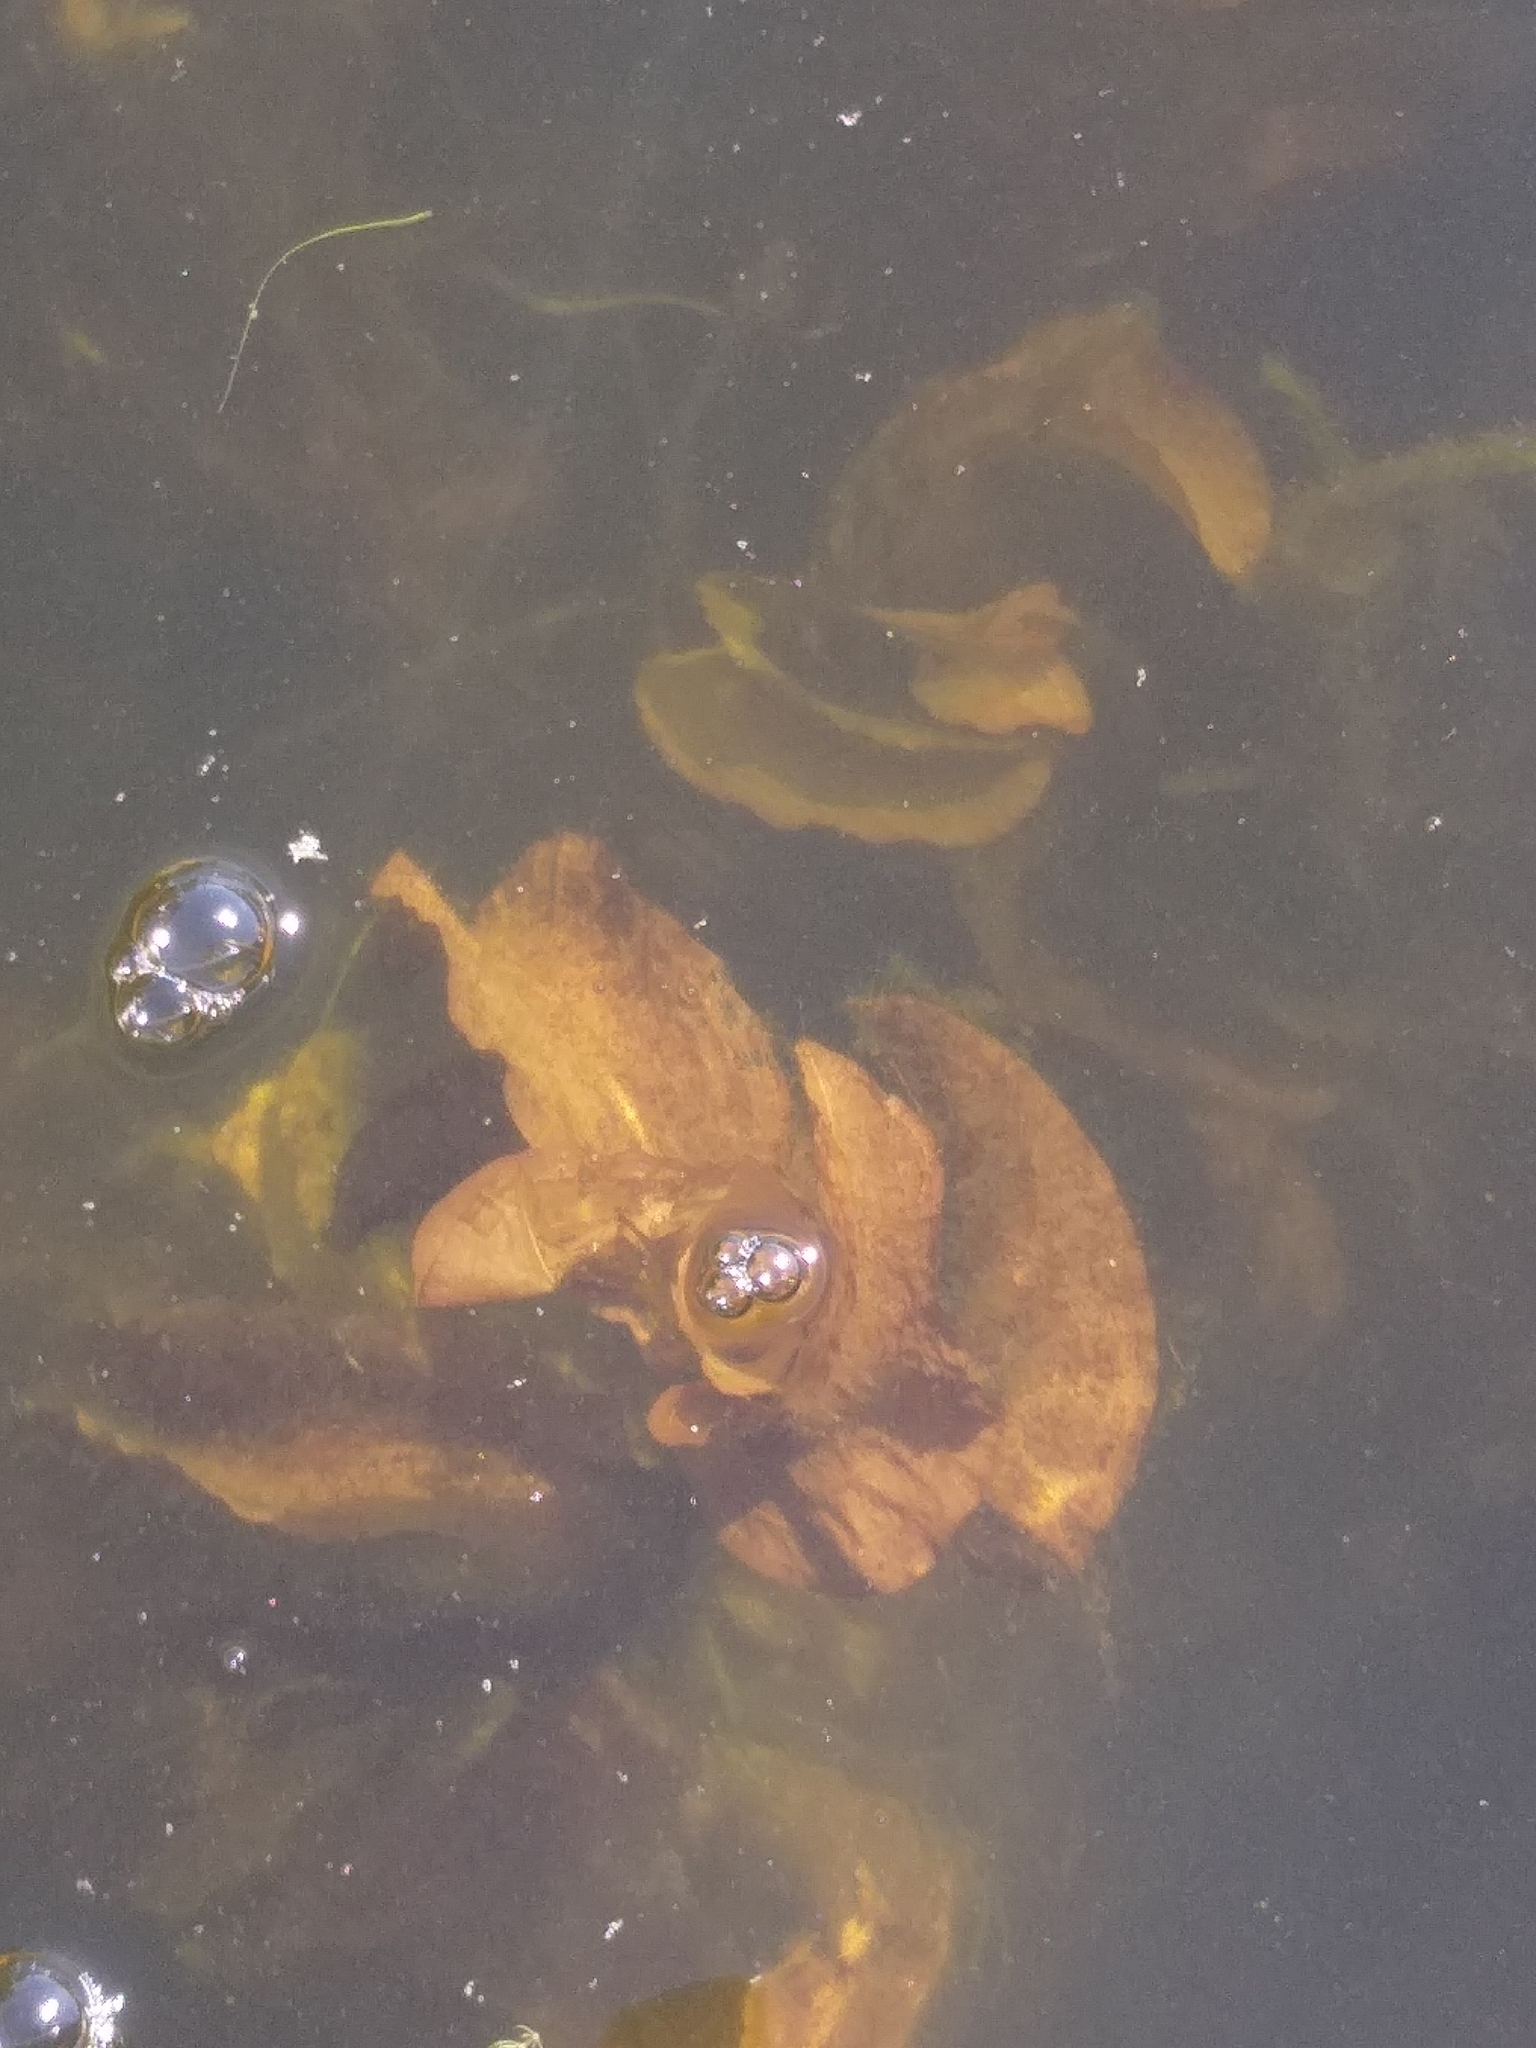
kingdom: Plantae
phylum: Tracheophyta
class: Liliopsida
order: Alismatales
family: Potamogetonaceae
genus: Potamogeton
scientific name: Potamogeton amplifolius
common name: Broad-leaved pondweed
